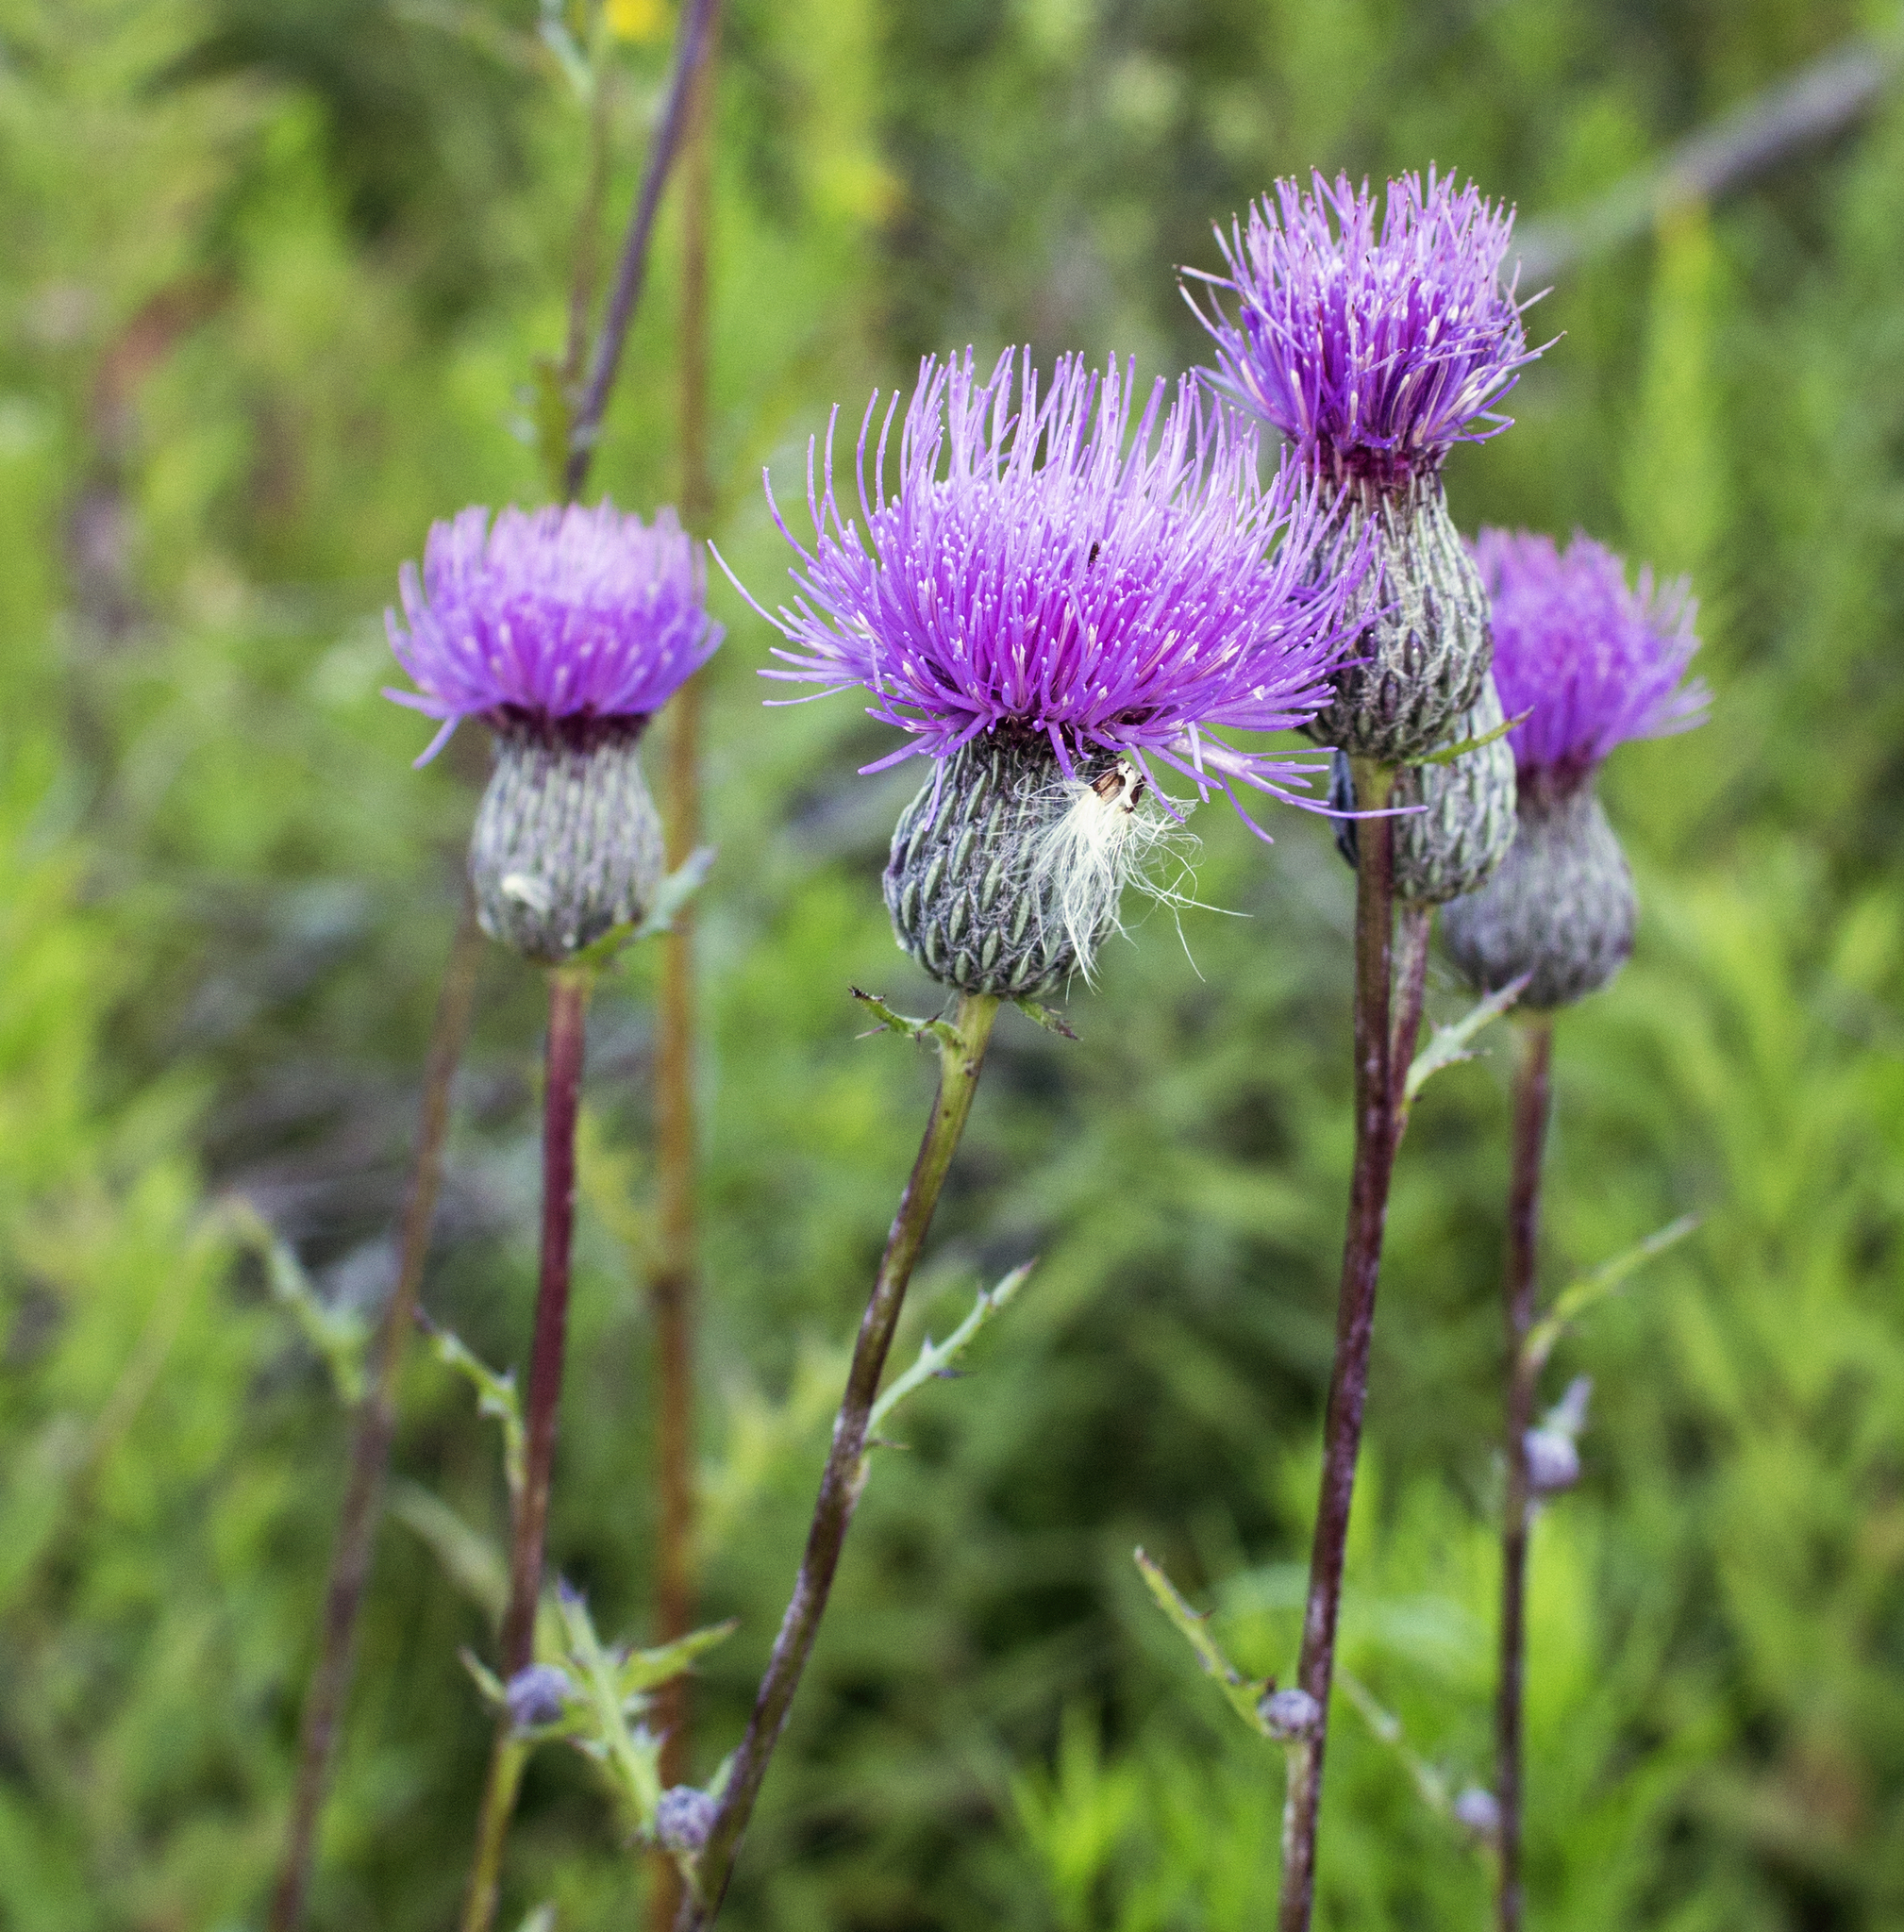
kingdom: Plantae
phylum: Tracheophyta
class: Magnoliopsida
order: Asterales
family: Asteraceae
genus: Cirsium
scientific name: Cirsium muticum
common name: Dunce-nettle
